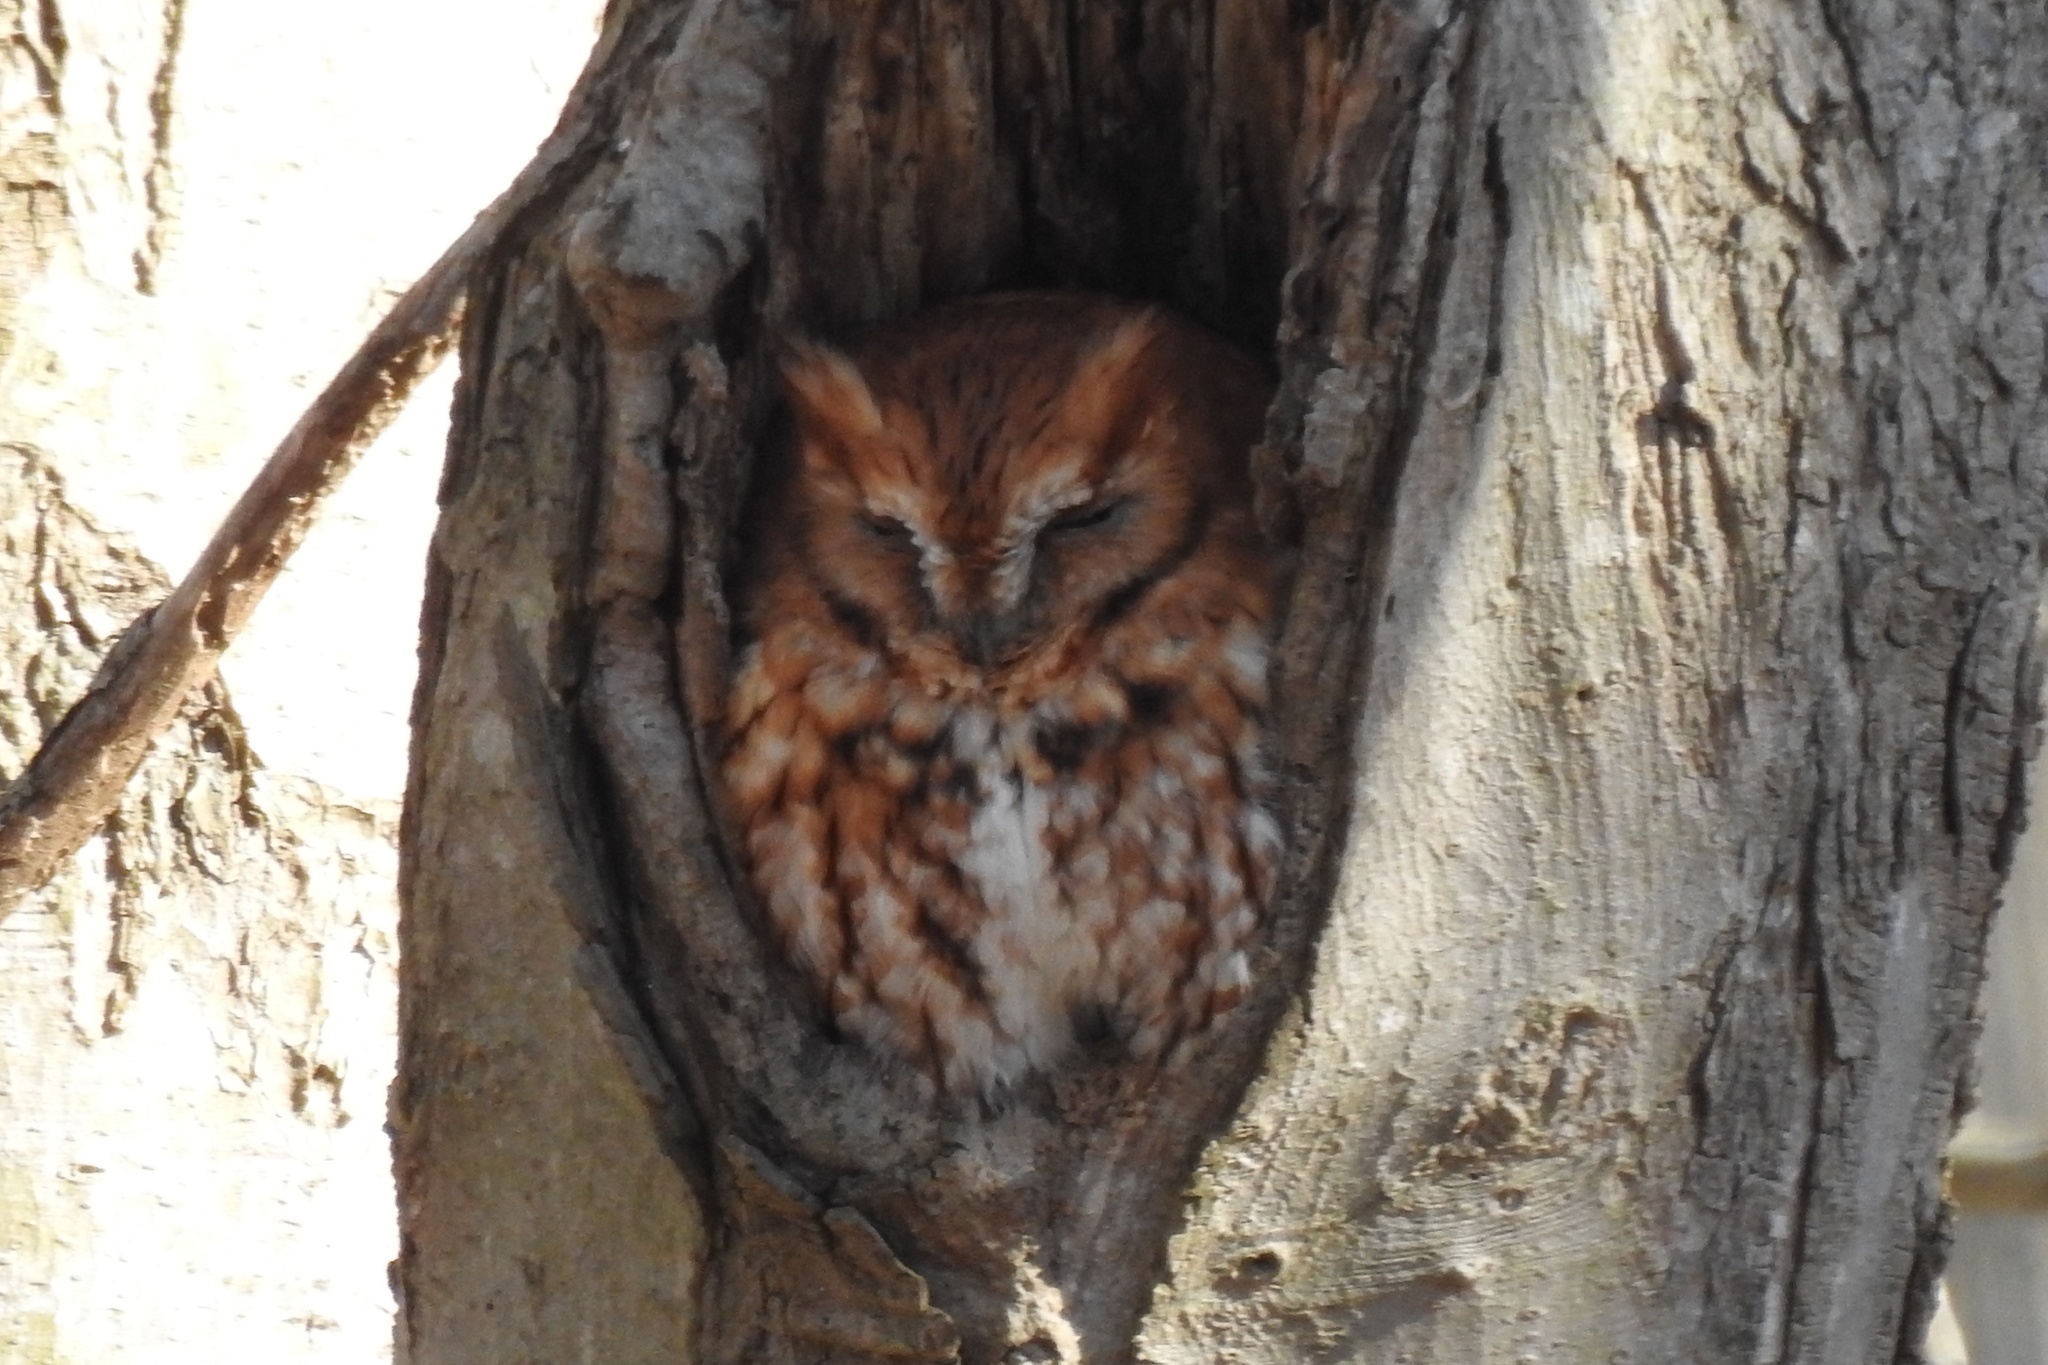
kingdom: Animalia
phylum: Chordata
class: Aves
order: Strigiformes
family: Strigidae
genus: Megascops
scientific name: Megascops asio
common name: Eastern screech-owl
